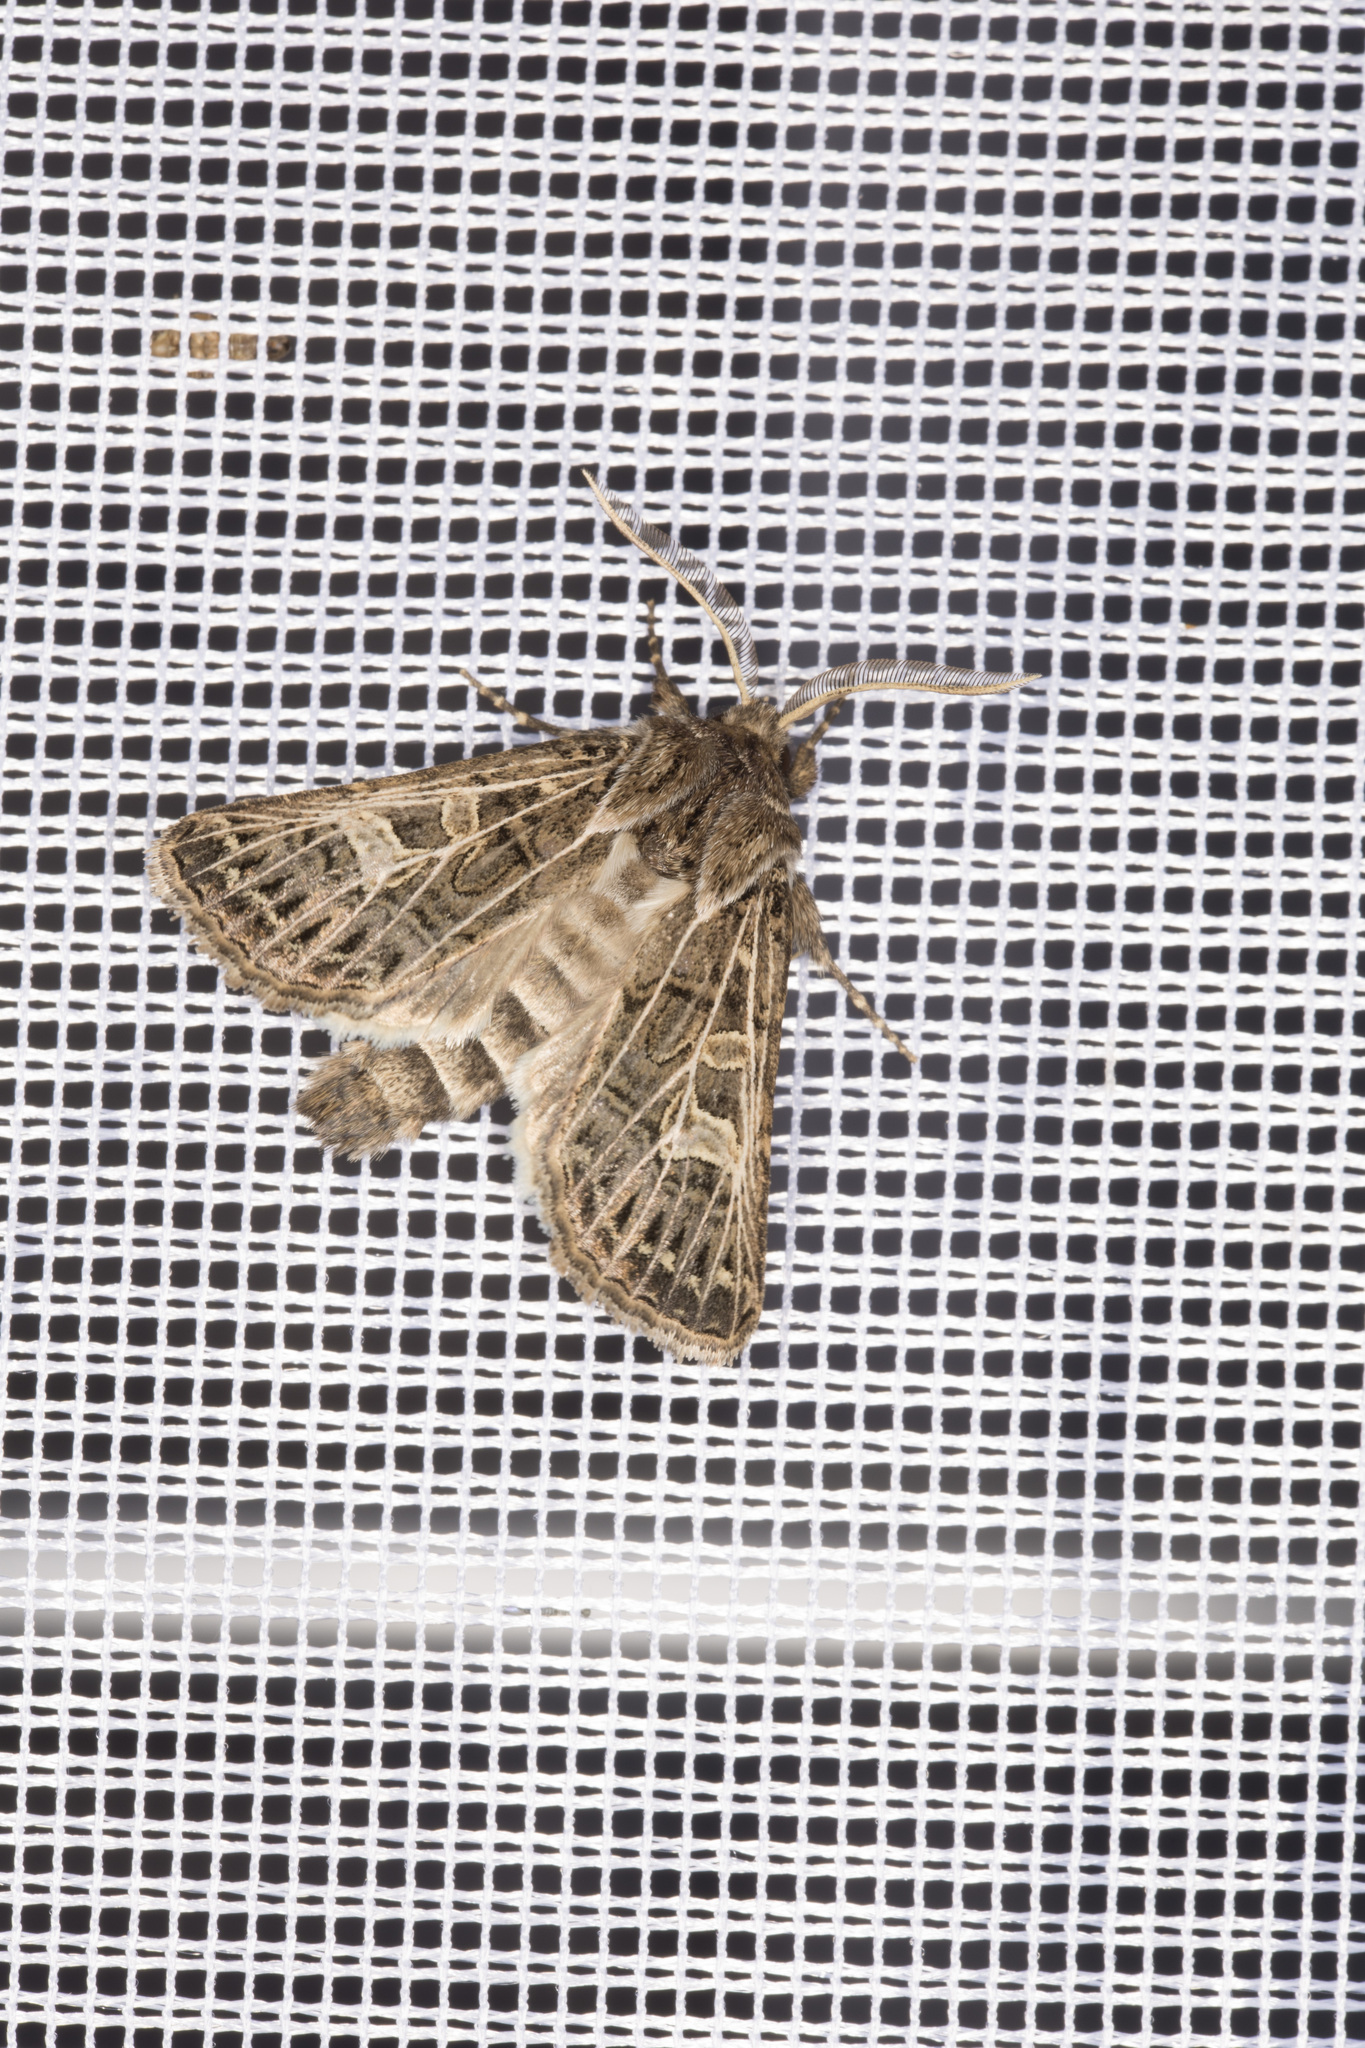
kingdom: Animalia
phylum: Arthropoda
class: Insecta
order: Lepidoptera
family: Noctuidae
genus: Tholera
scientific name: Tholera decimalis
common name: Feathered gothic
